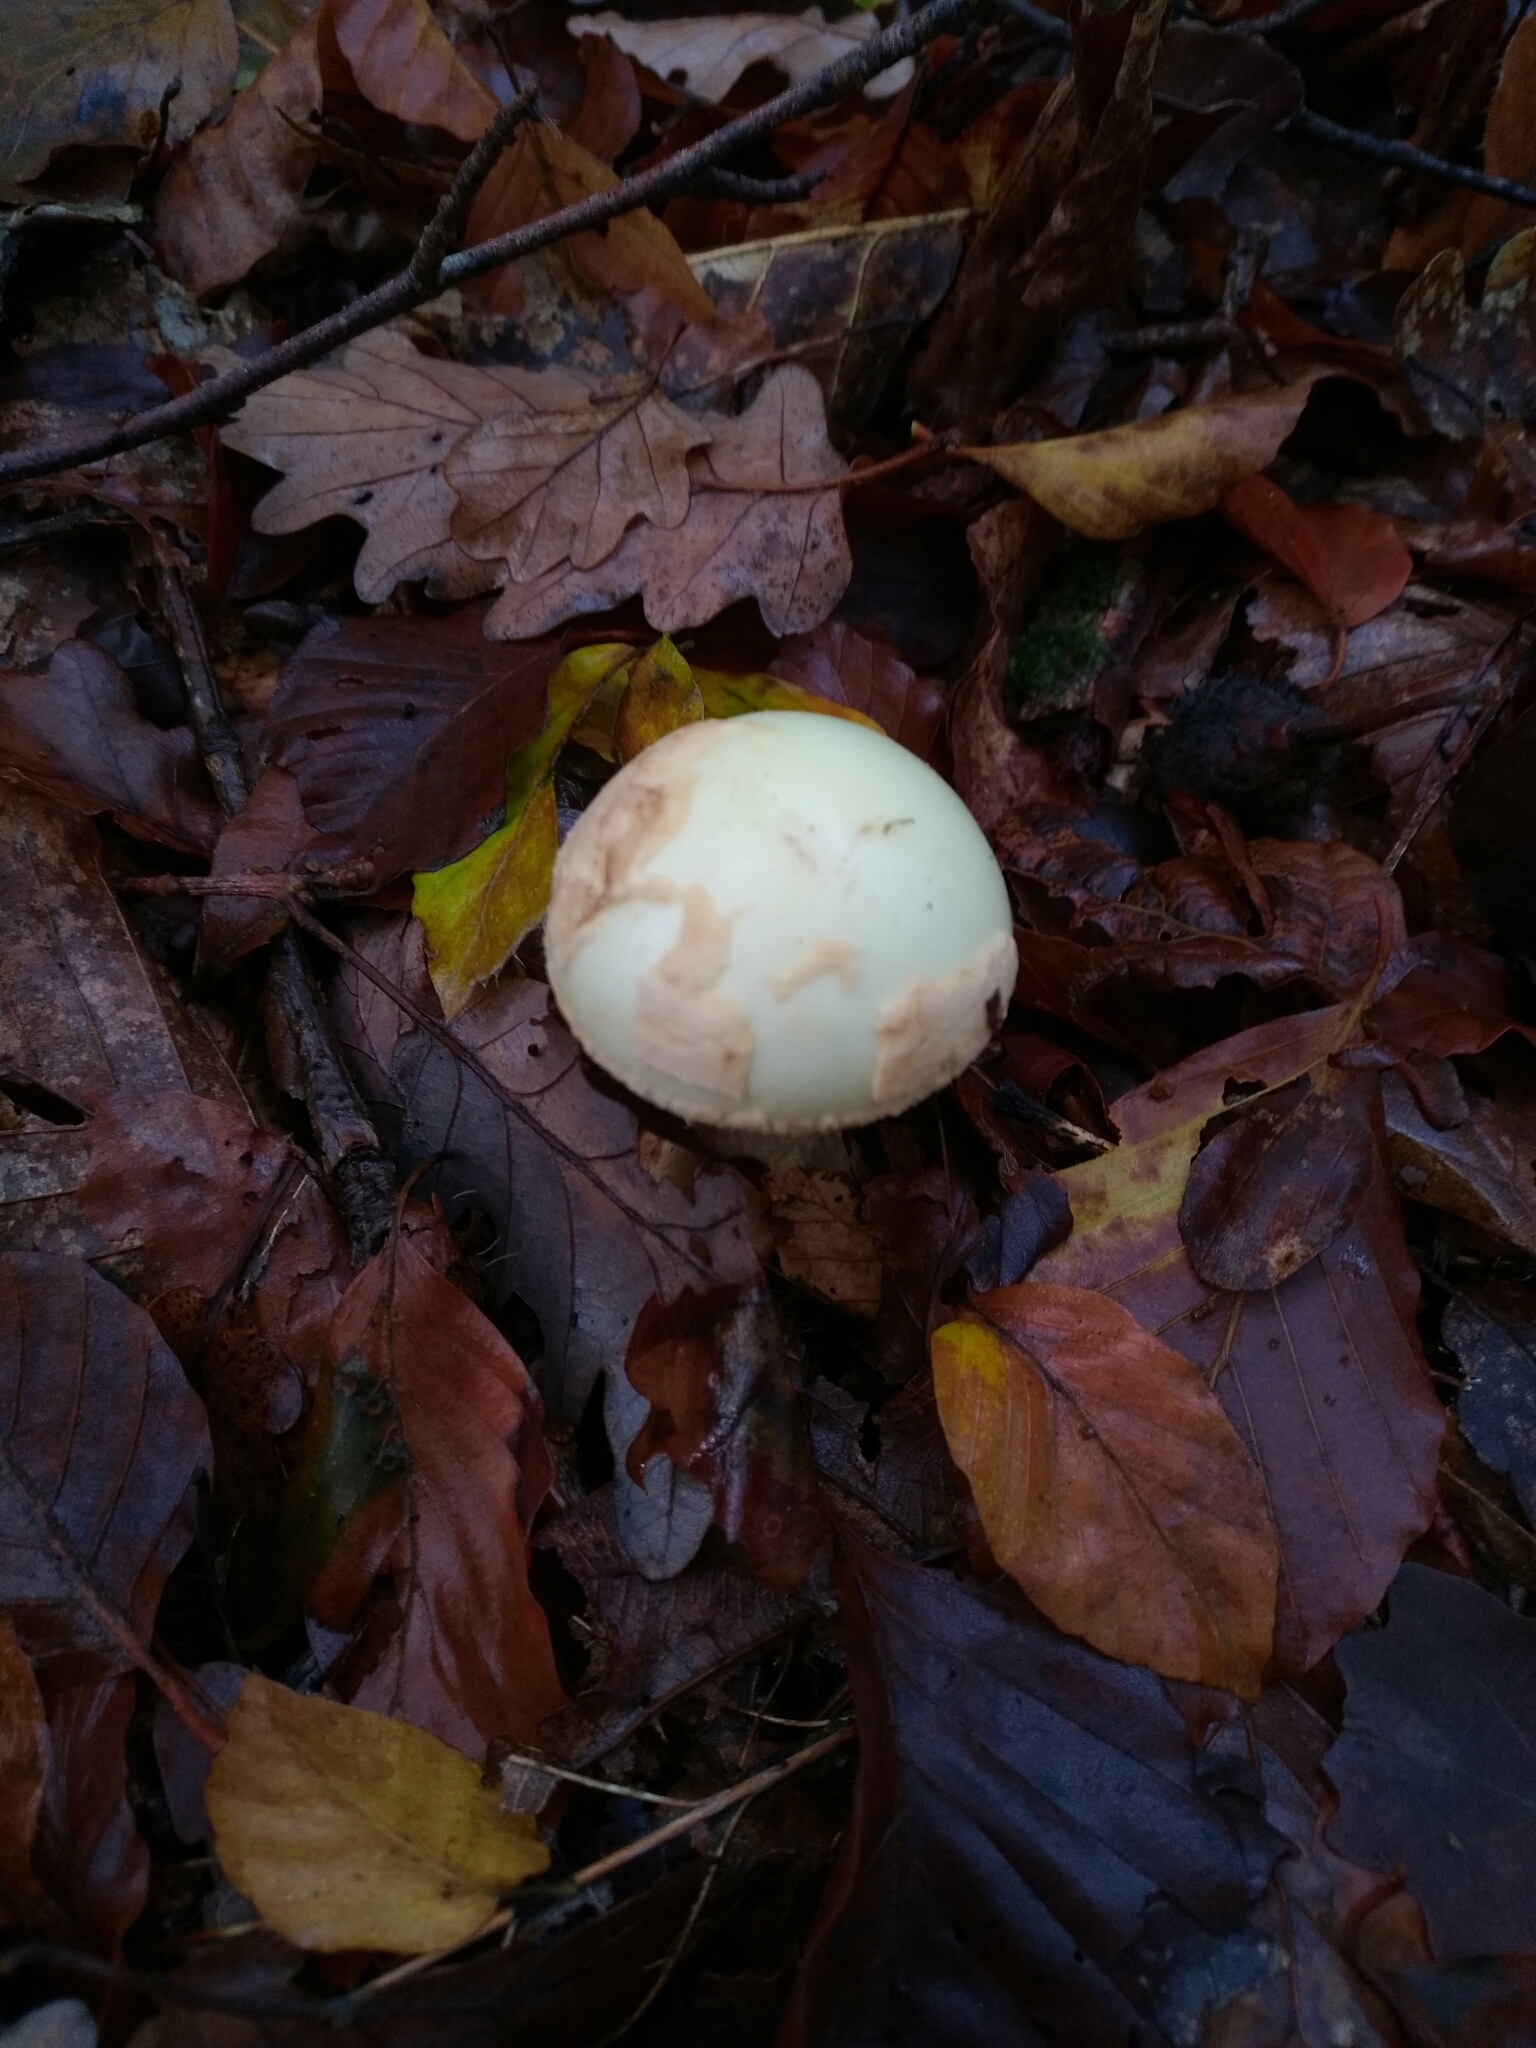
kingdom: Fungi
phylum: Basidiomycota
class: Agaricomycetes
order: Agaricales
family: Amanitaceae
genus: Amanita
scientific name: Amanita citrina
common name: False death-cap
